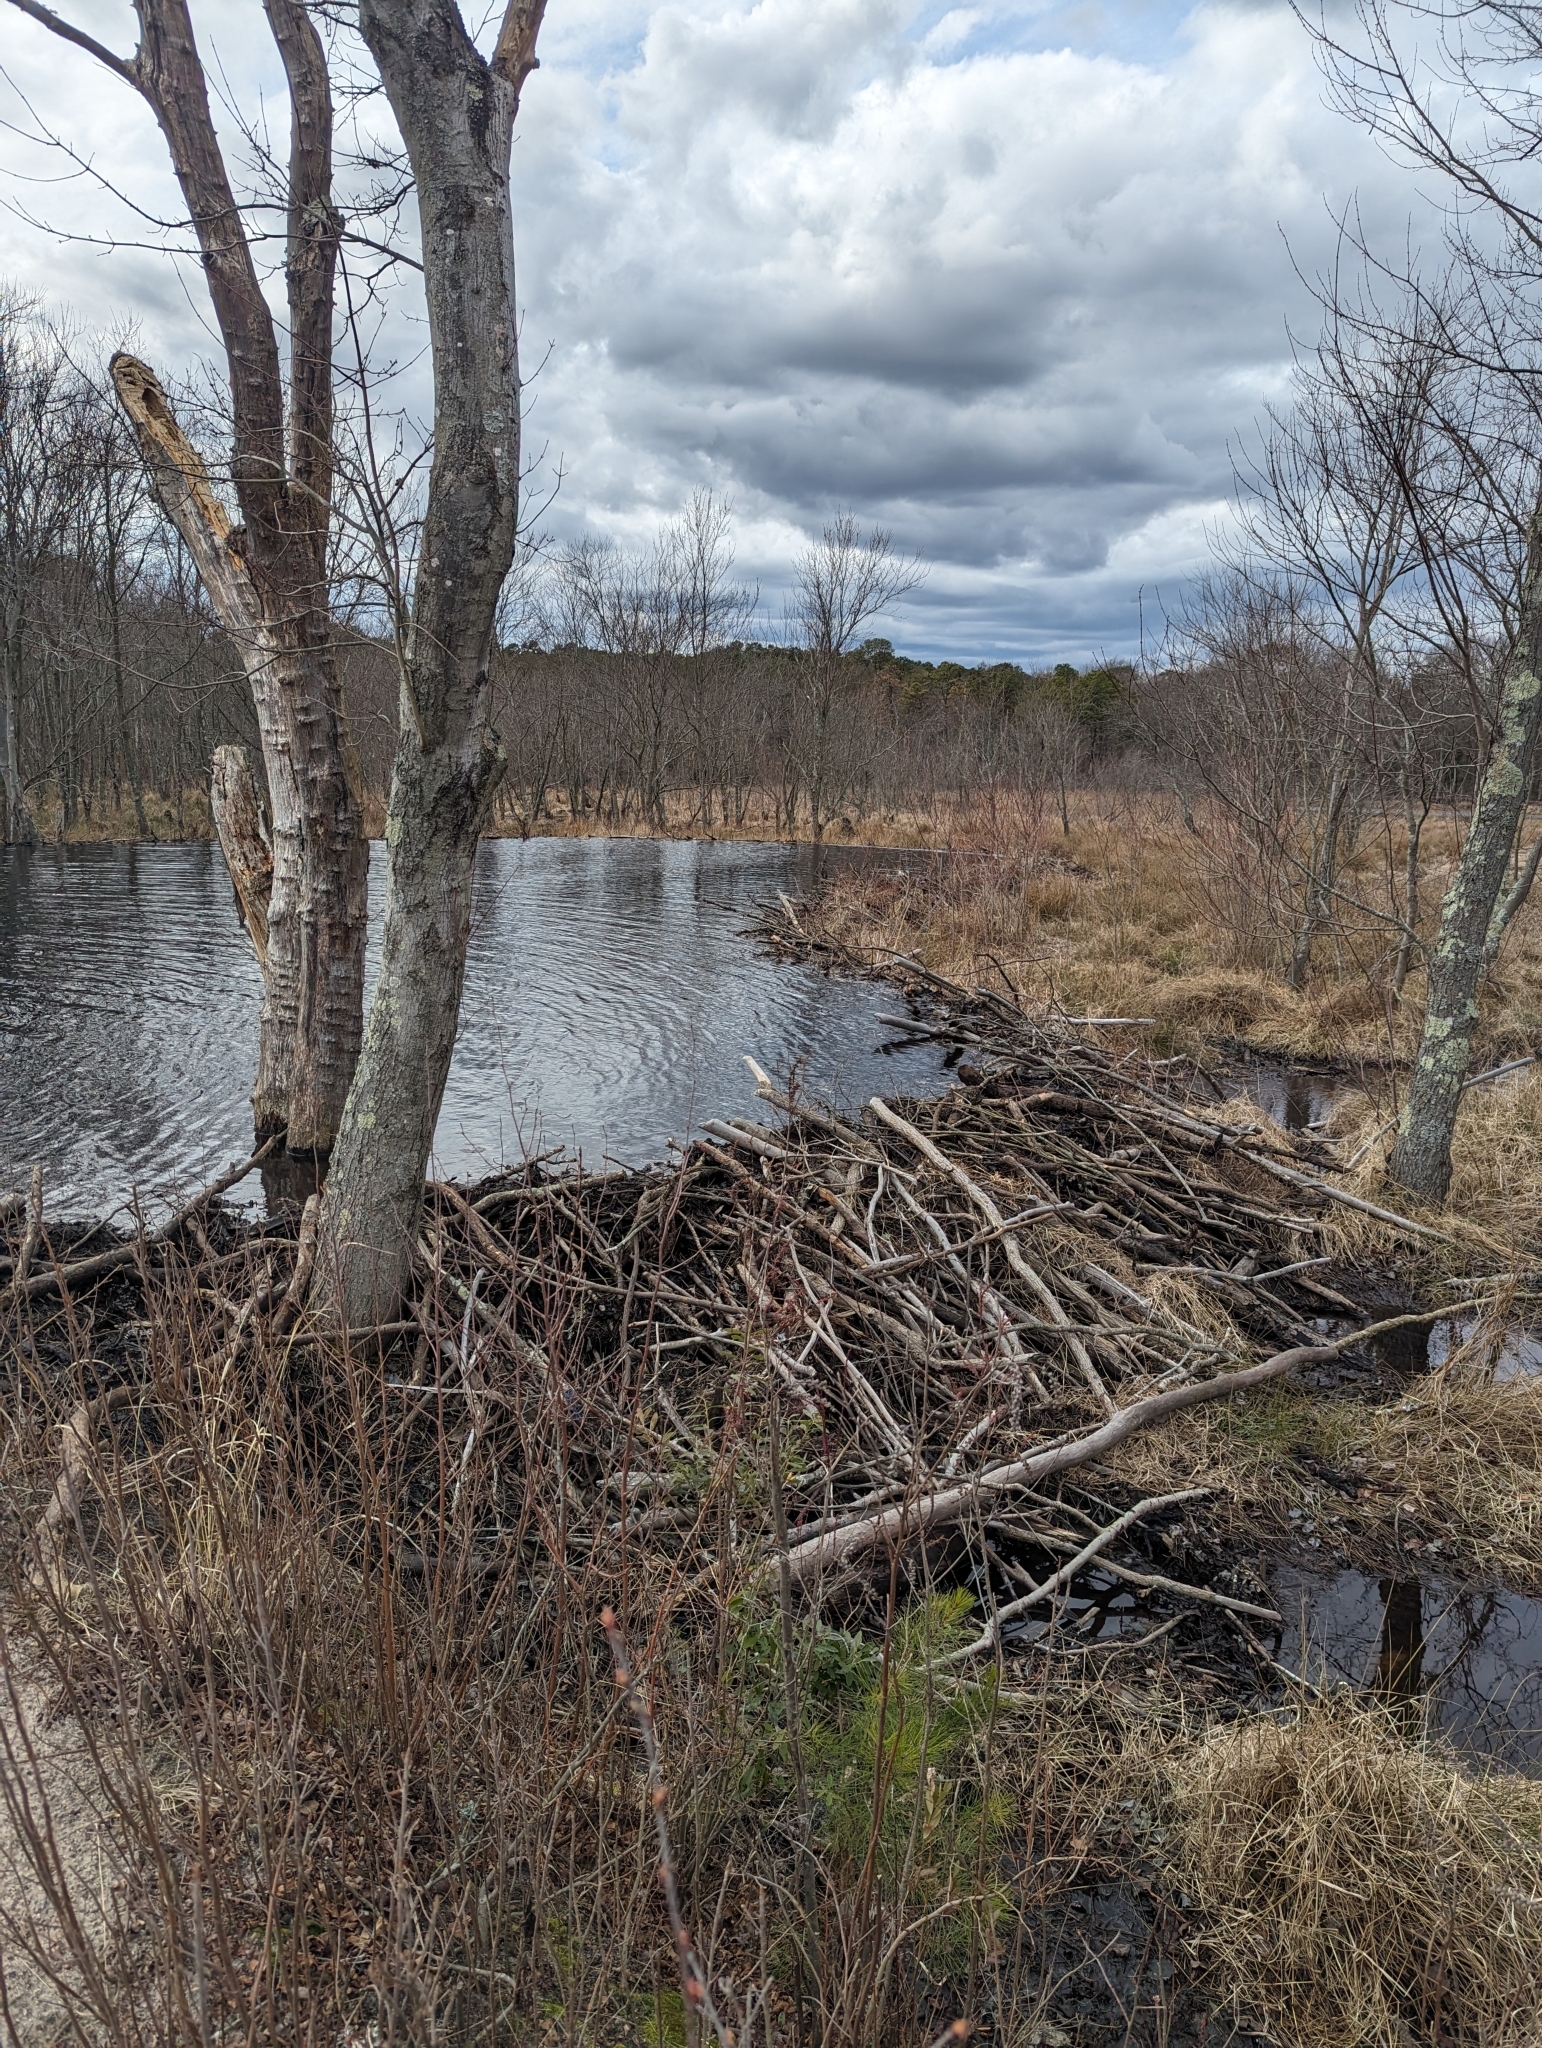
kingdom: Animalia
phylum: Chordata
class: Mammalia
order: Rodentia
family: Castoridae
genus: Castor
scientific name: Castor canadensis
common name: American beaver
